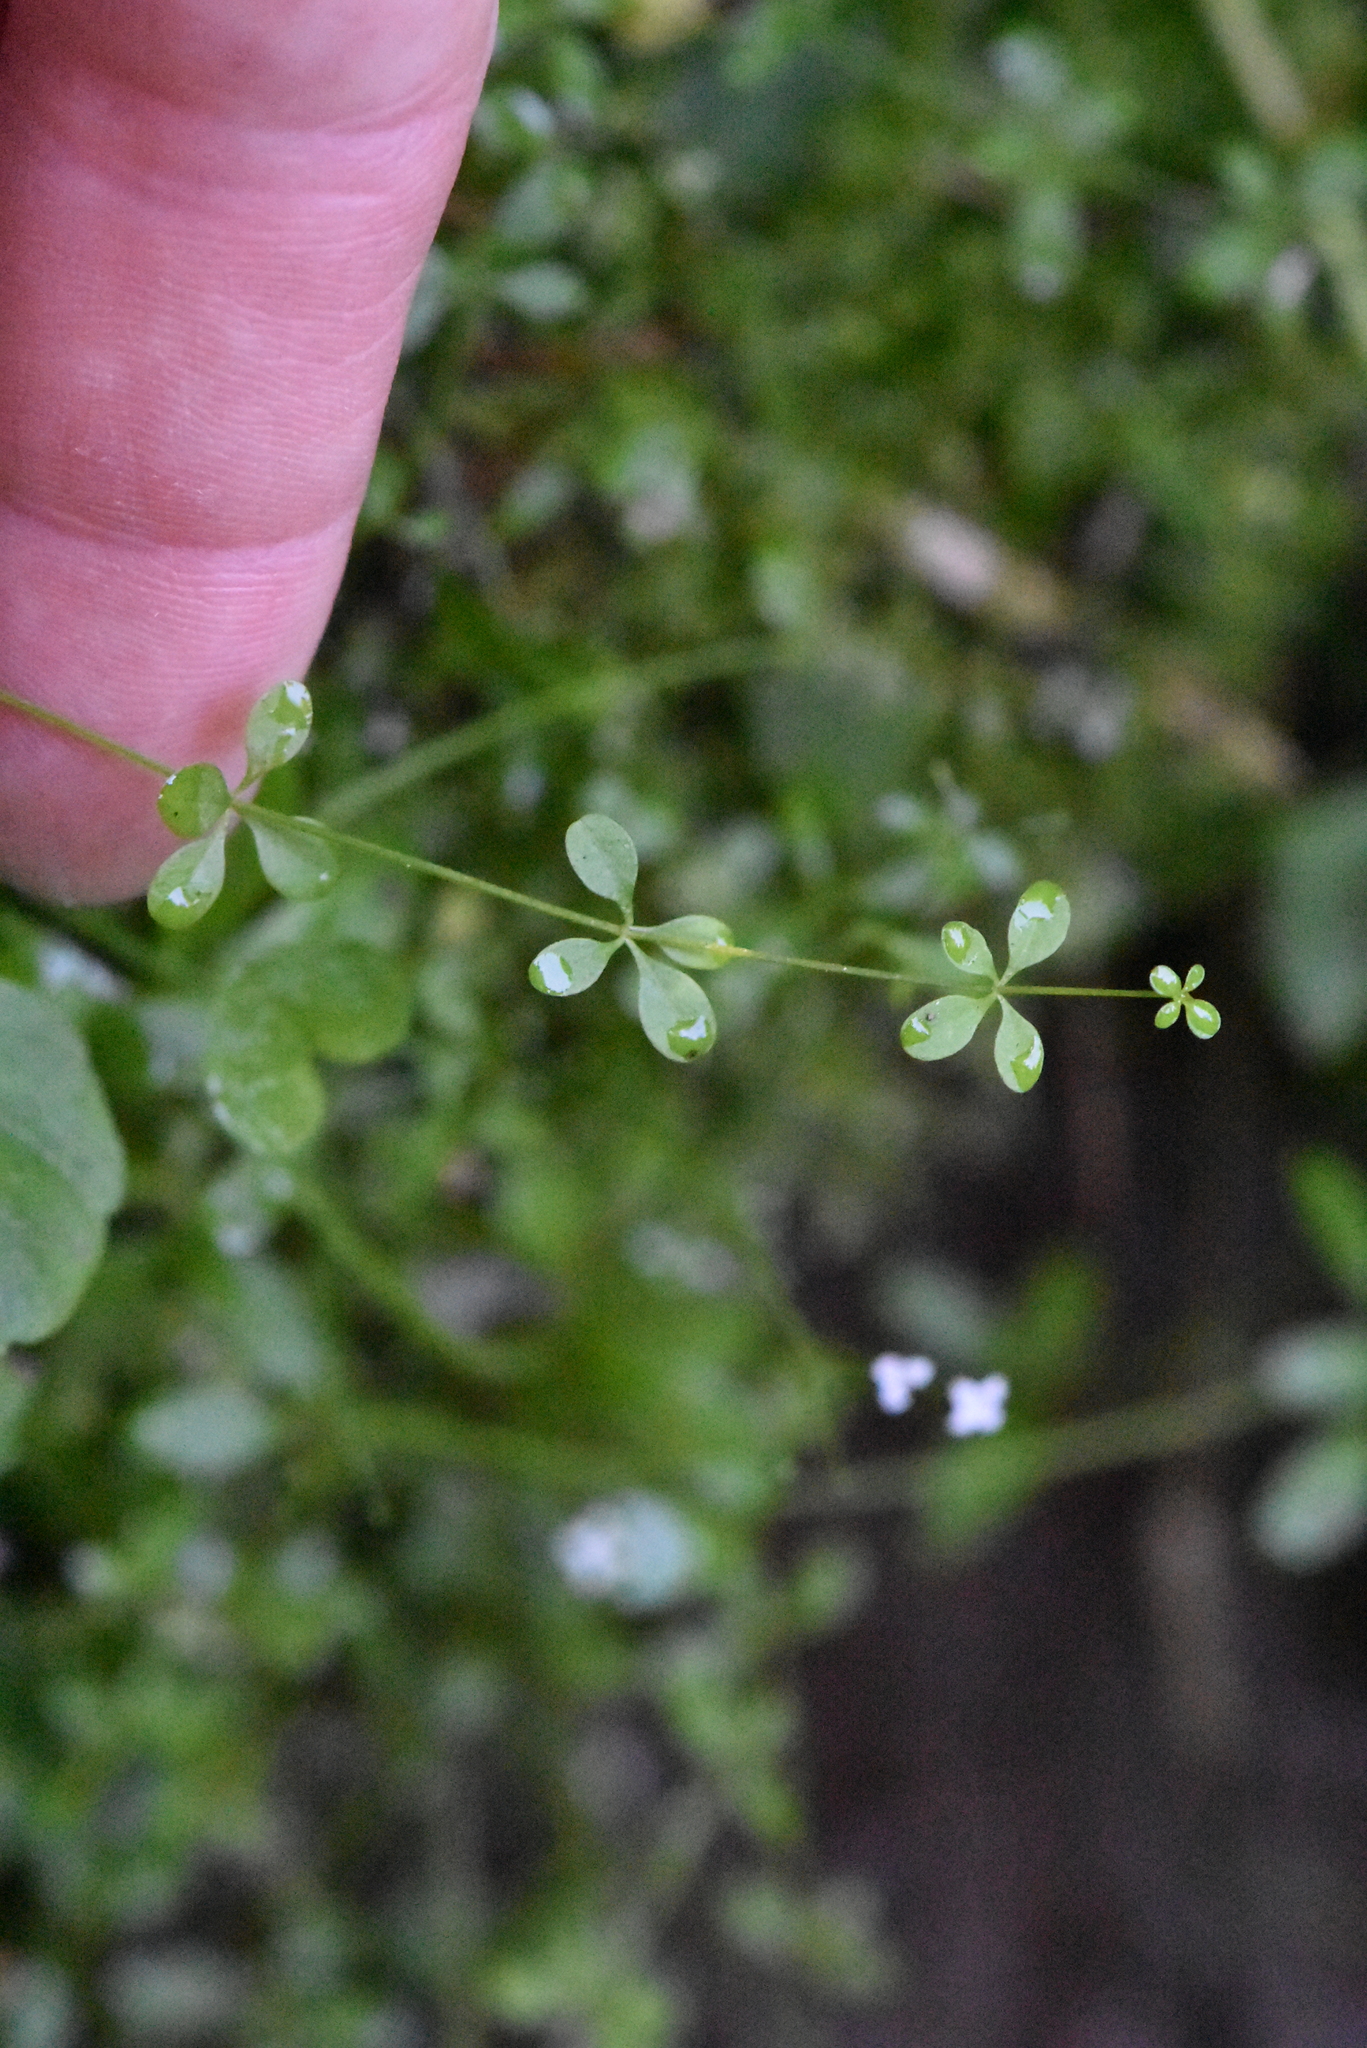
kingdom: Plantae
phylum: Tracheophyta
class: Magnoliopsida
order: Gentianales
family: Rubiaceae
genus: Galium
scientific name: Galium palustre
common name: Common marsh-bedstraw
